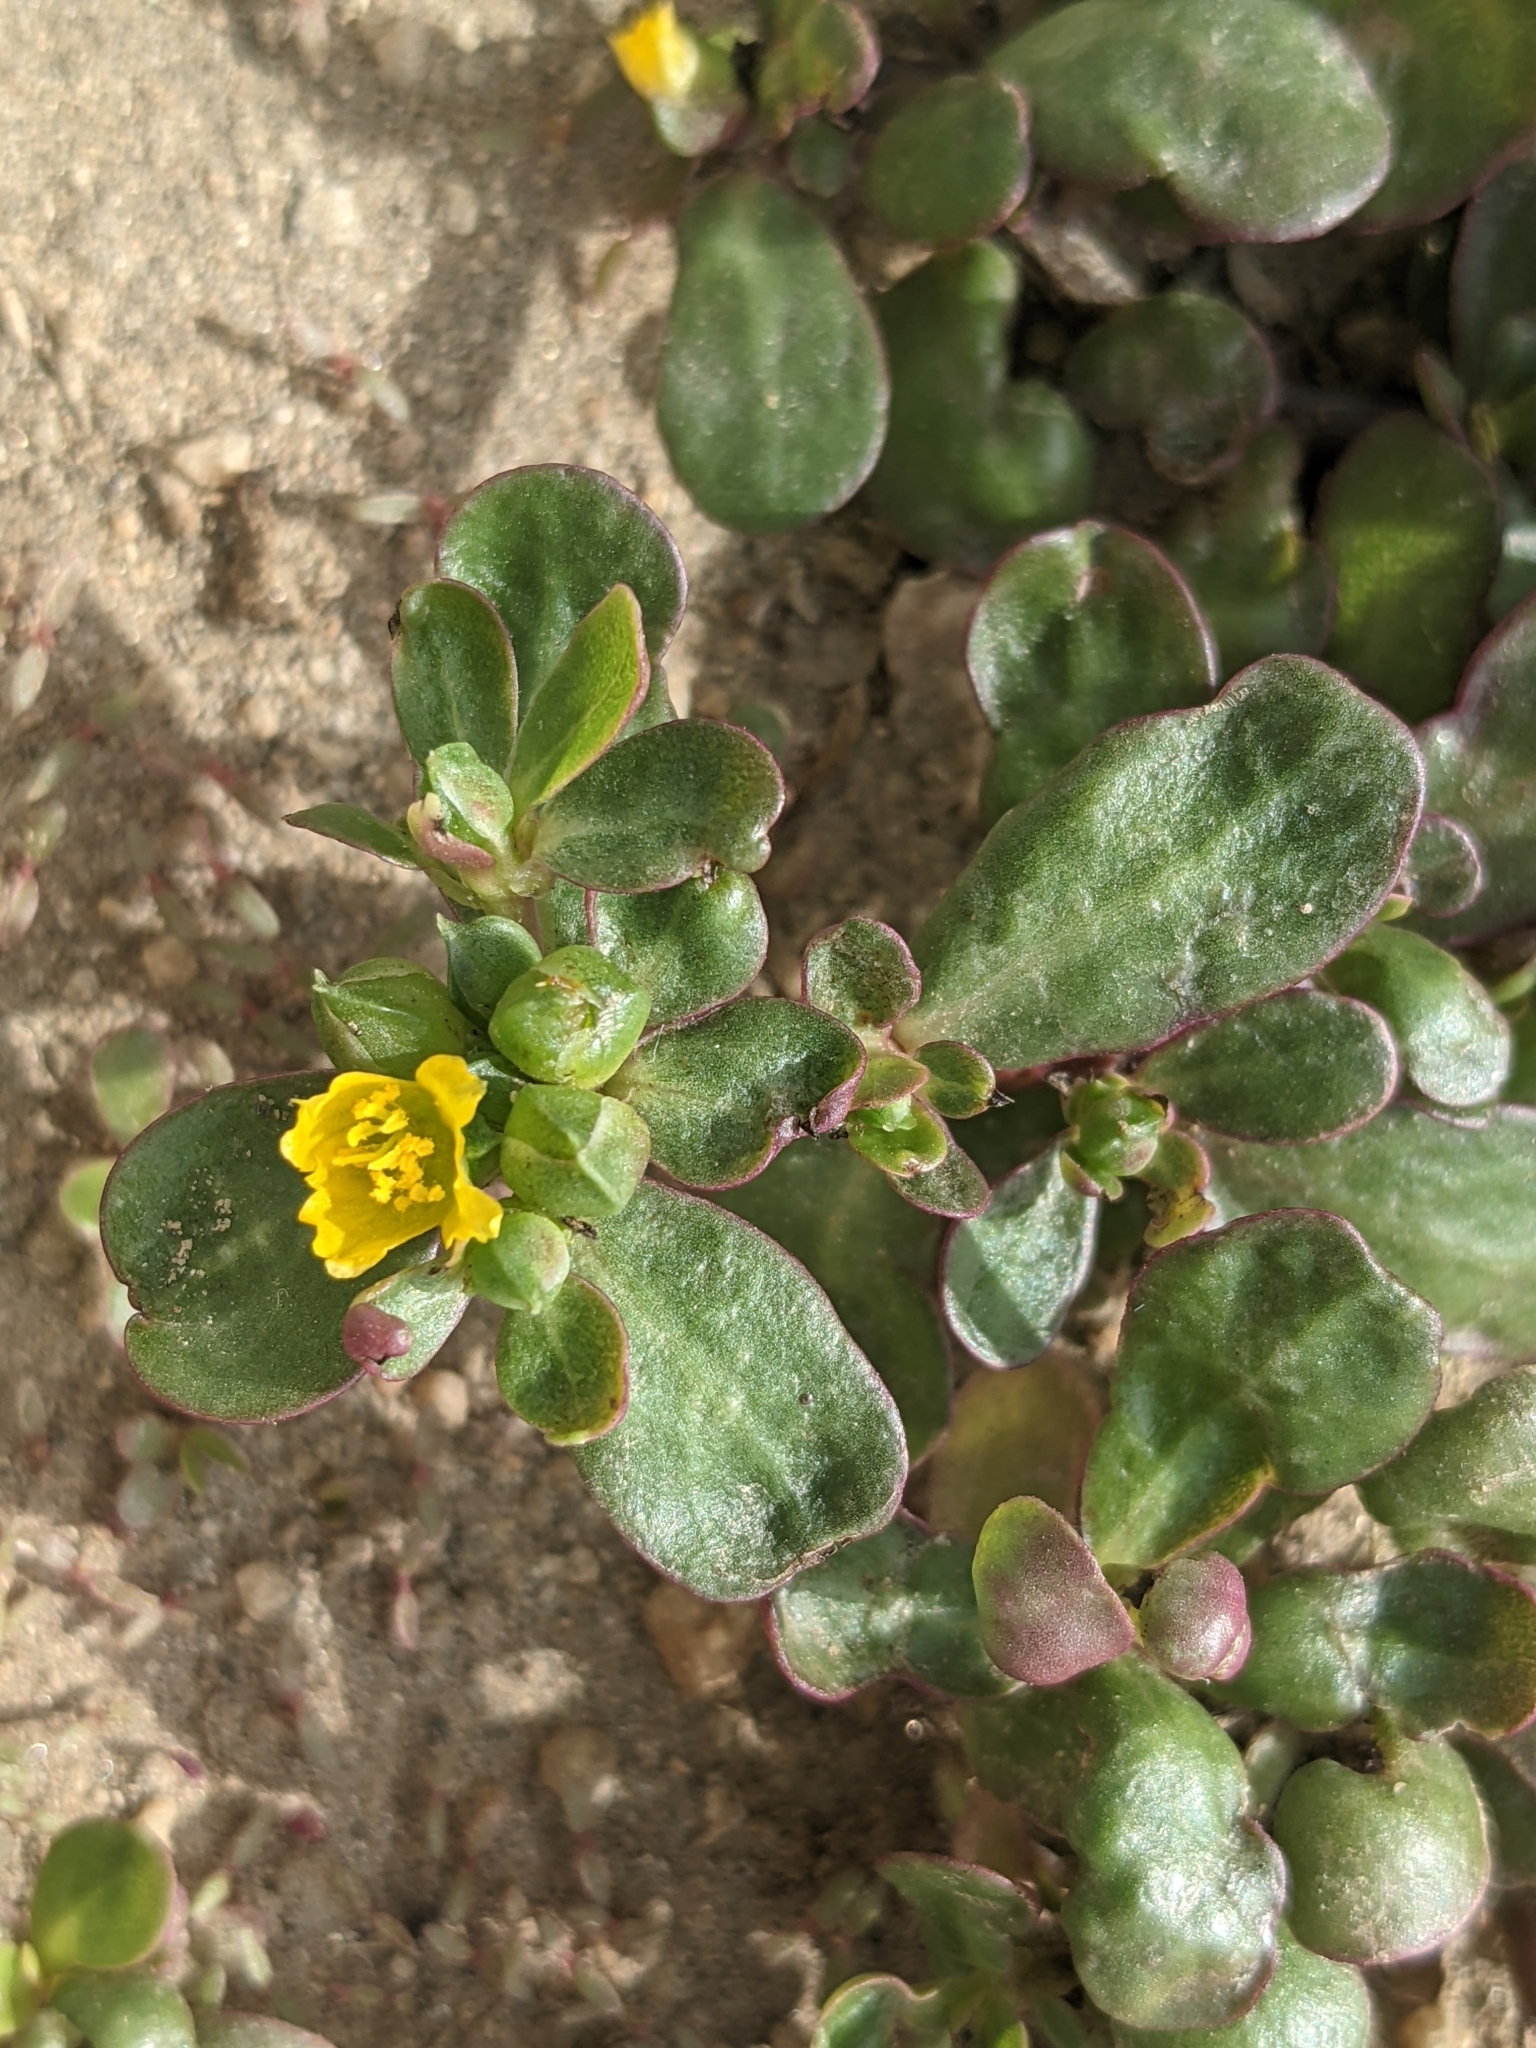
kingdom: Plantae
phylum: Tracheophyta
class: Magnoliopsida
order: Caryophyllales
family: Portulacaceae
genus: Portulaca
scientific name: Portulaca oleracea
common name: Common purslane
